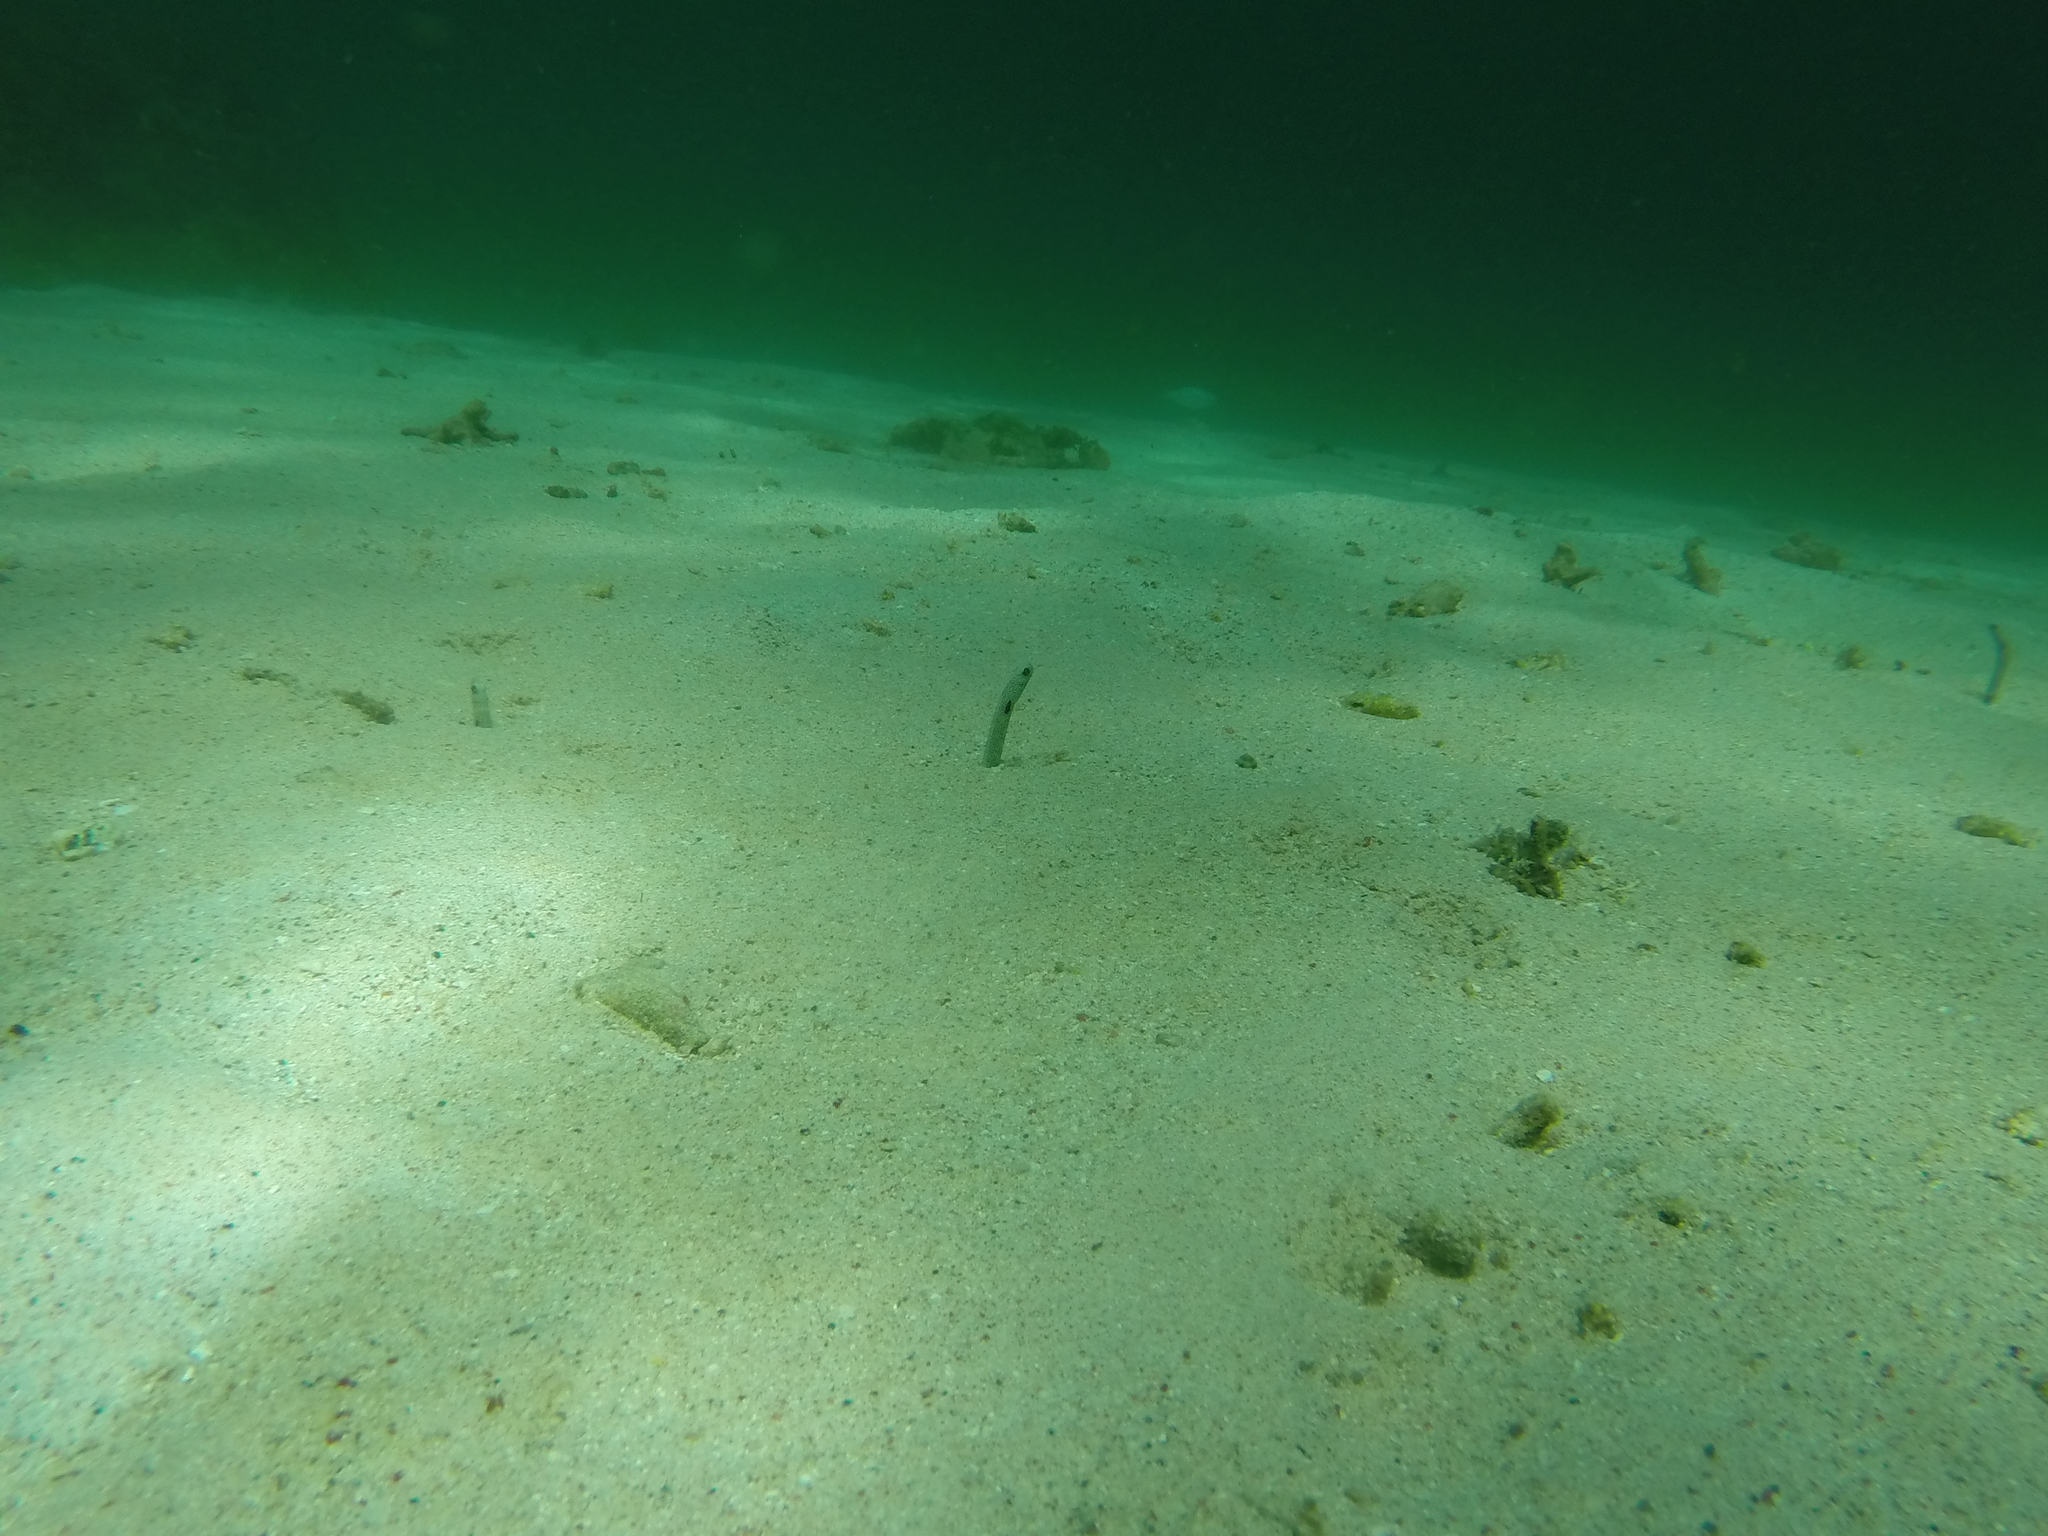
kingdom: Animalia
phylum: Chordata
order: Anguilliformes
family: Congridae
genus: Heteroconger
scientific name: Heteroconger hassi
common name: Spotted garden eel
